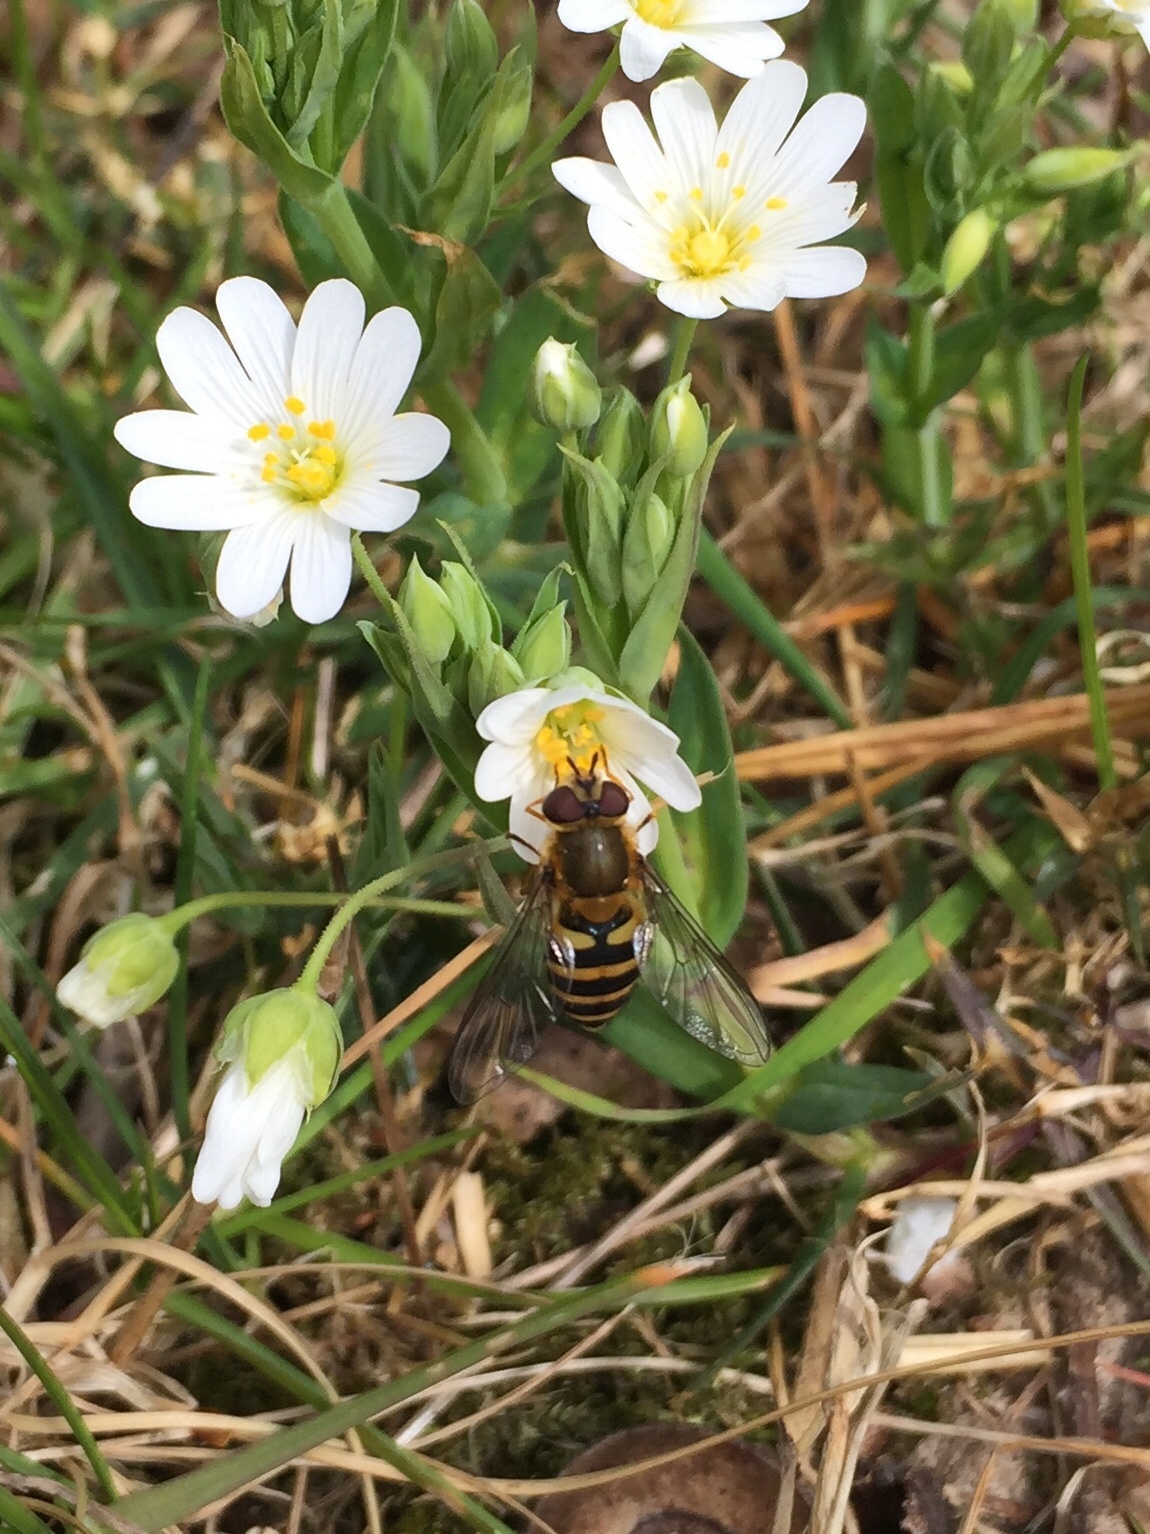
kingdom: Animalia
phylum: Arthropoda
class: Insecta
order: Diptera
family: Syrphidae
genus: Syrphus
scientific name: Syrphus
